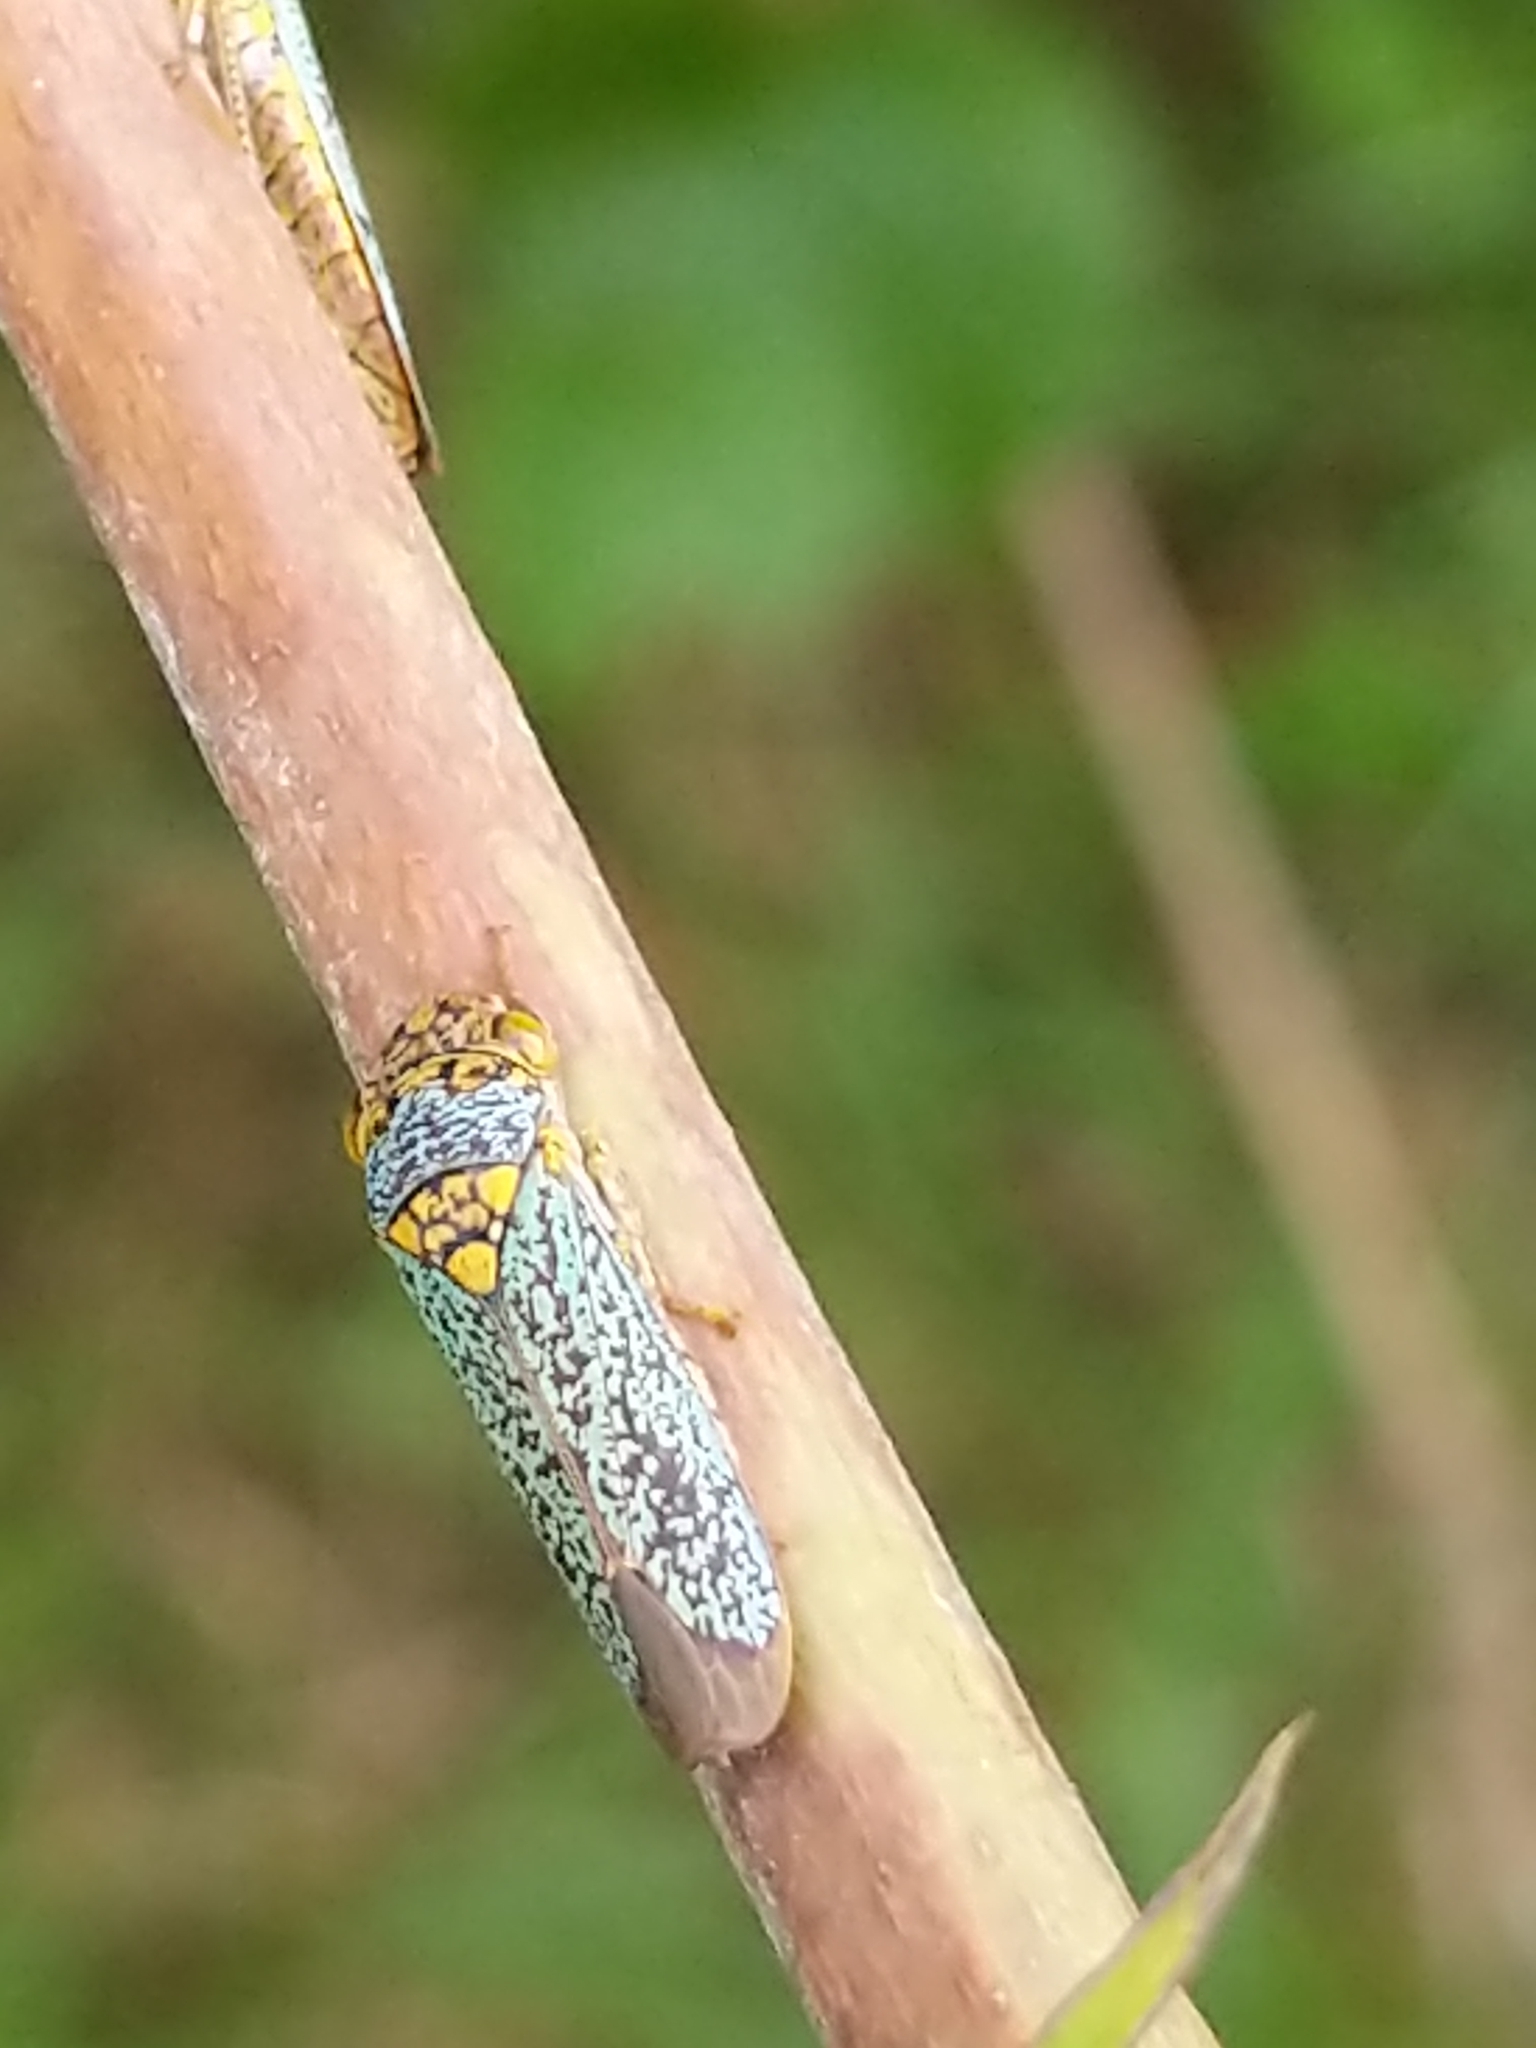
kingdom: Animalia
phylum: Arthropoda
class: Insecta
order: Hemiptera
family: Cicadellidae
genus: Oncometopia
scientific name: Oncometopia orbona
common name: Broad-headed sharpshooter
